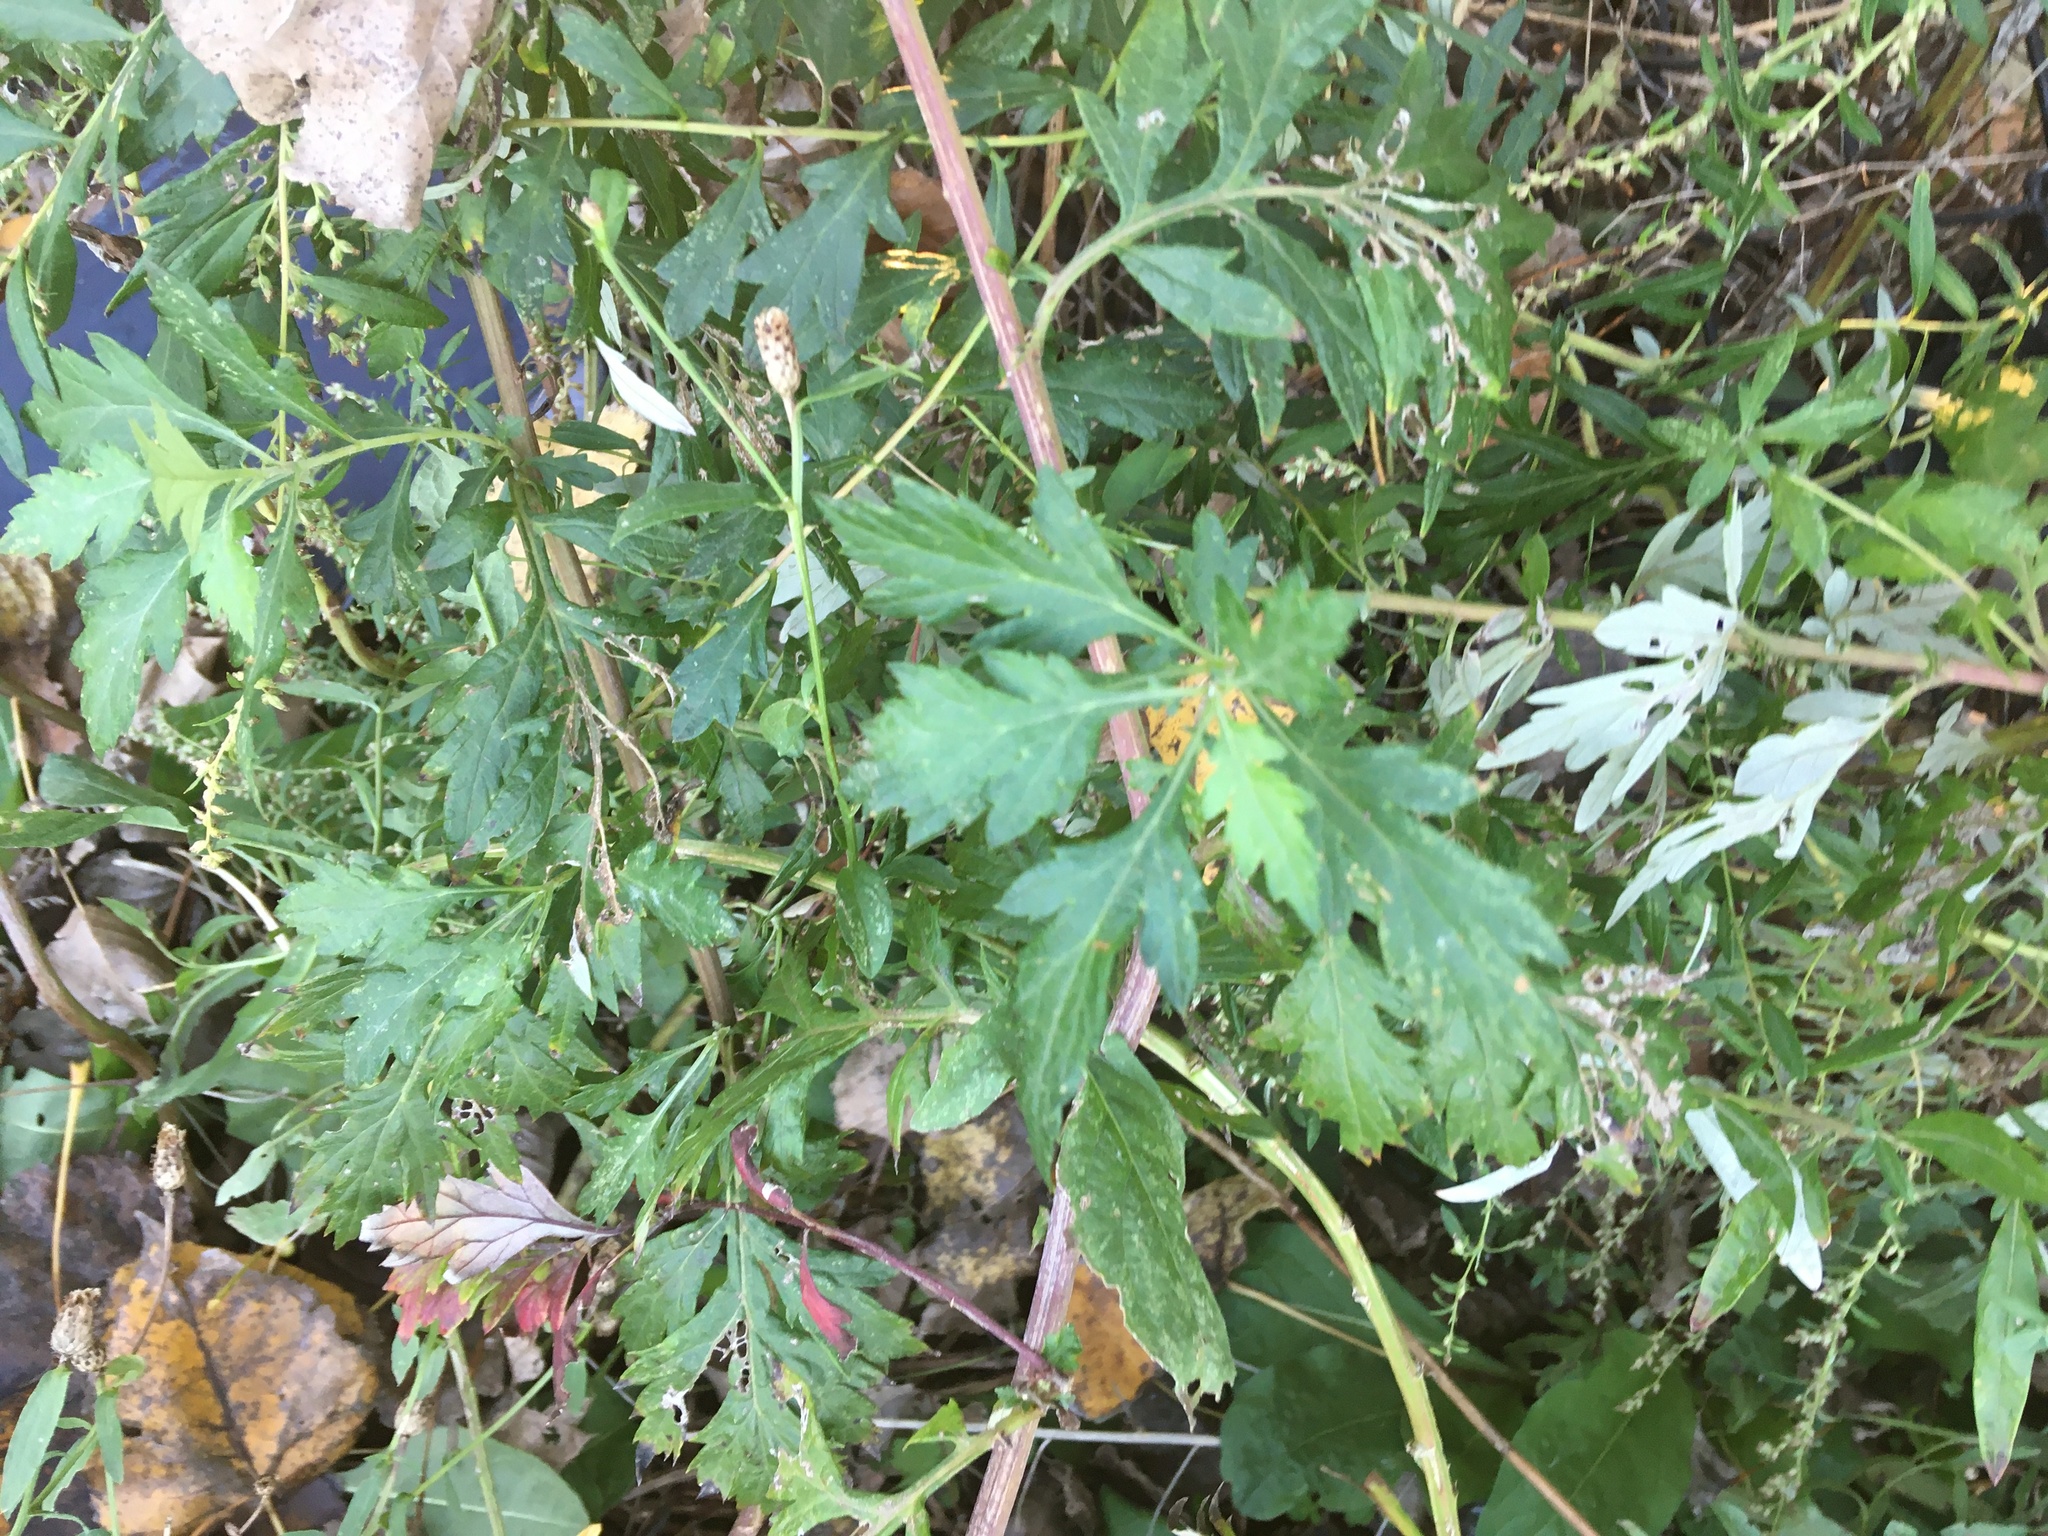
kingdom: Plantae
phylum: Tracheophyta
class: Magnoliopsida
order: Asterales
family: Asteraceae
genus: Artemisia
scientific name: Artemisia vulgaris
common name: Mugwort
